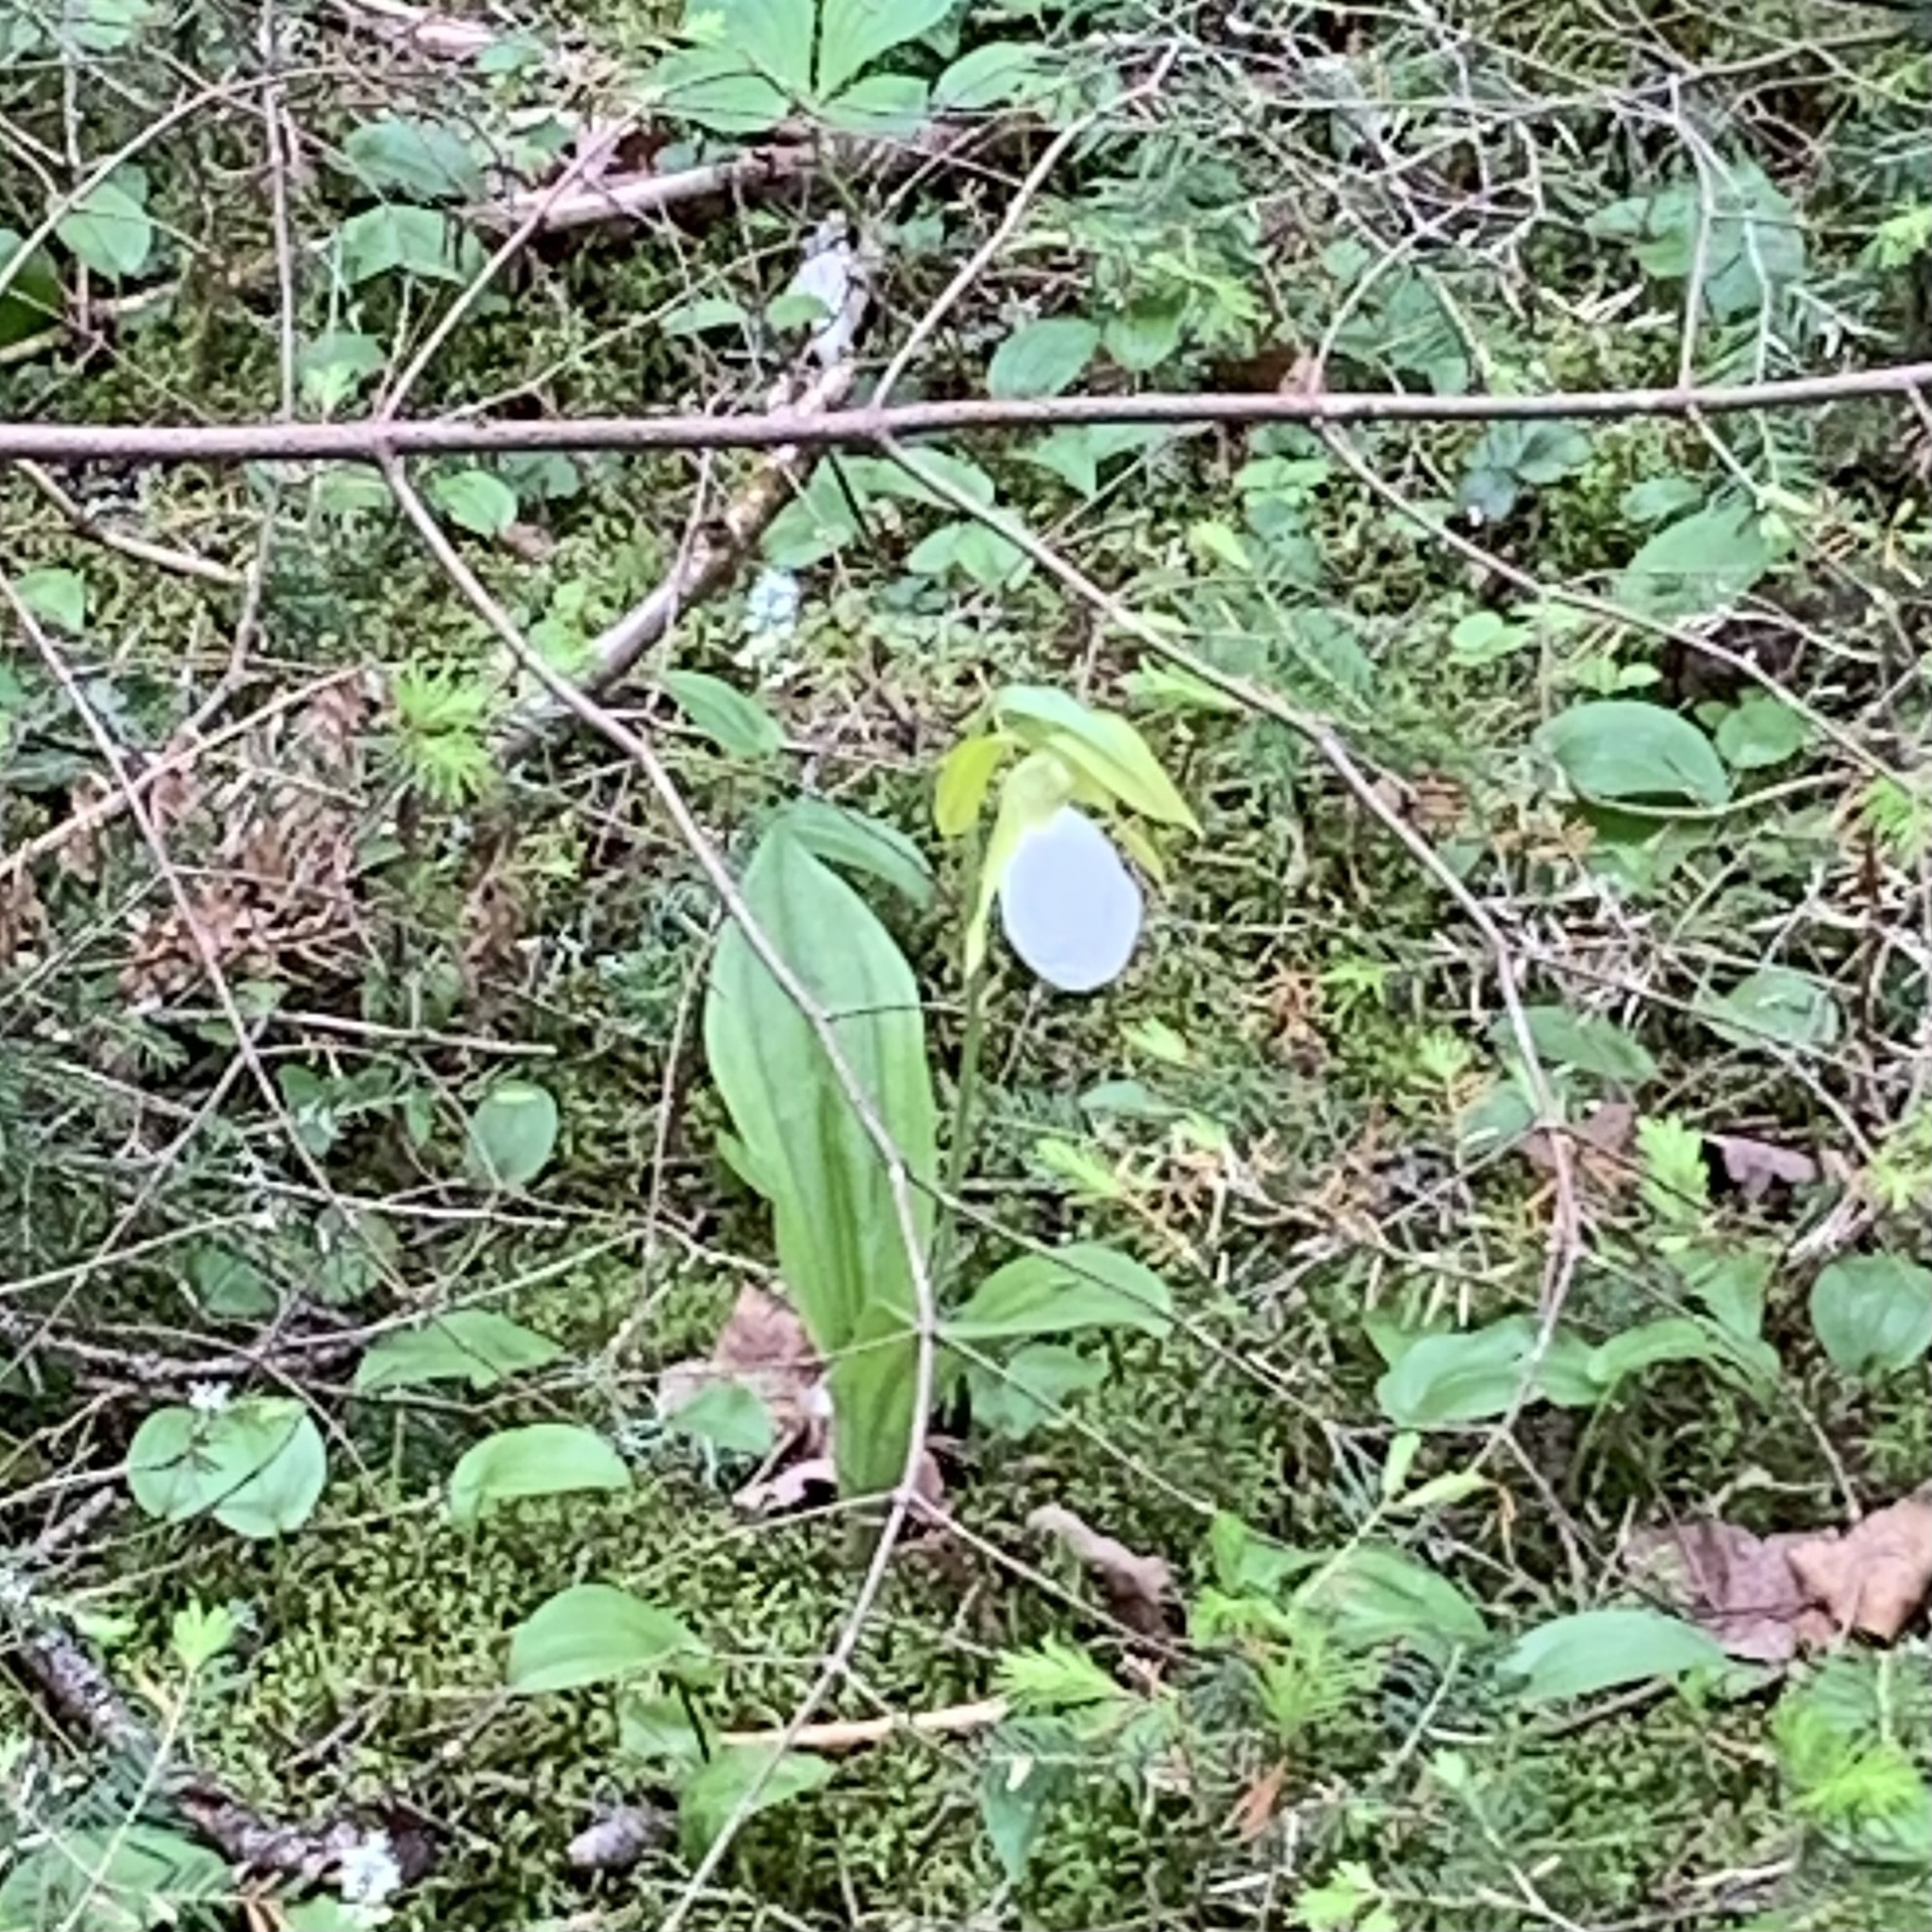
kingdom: Plantae
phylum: Tracheophyta
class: Liliopsida
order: Asparagales
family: Orchidaceae
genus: Cypripedium
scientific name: Cypripedium acaule
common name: Pink lady's-slipper
